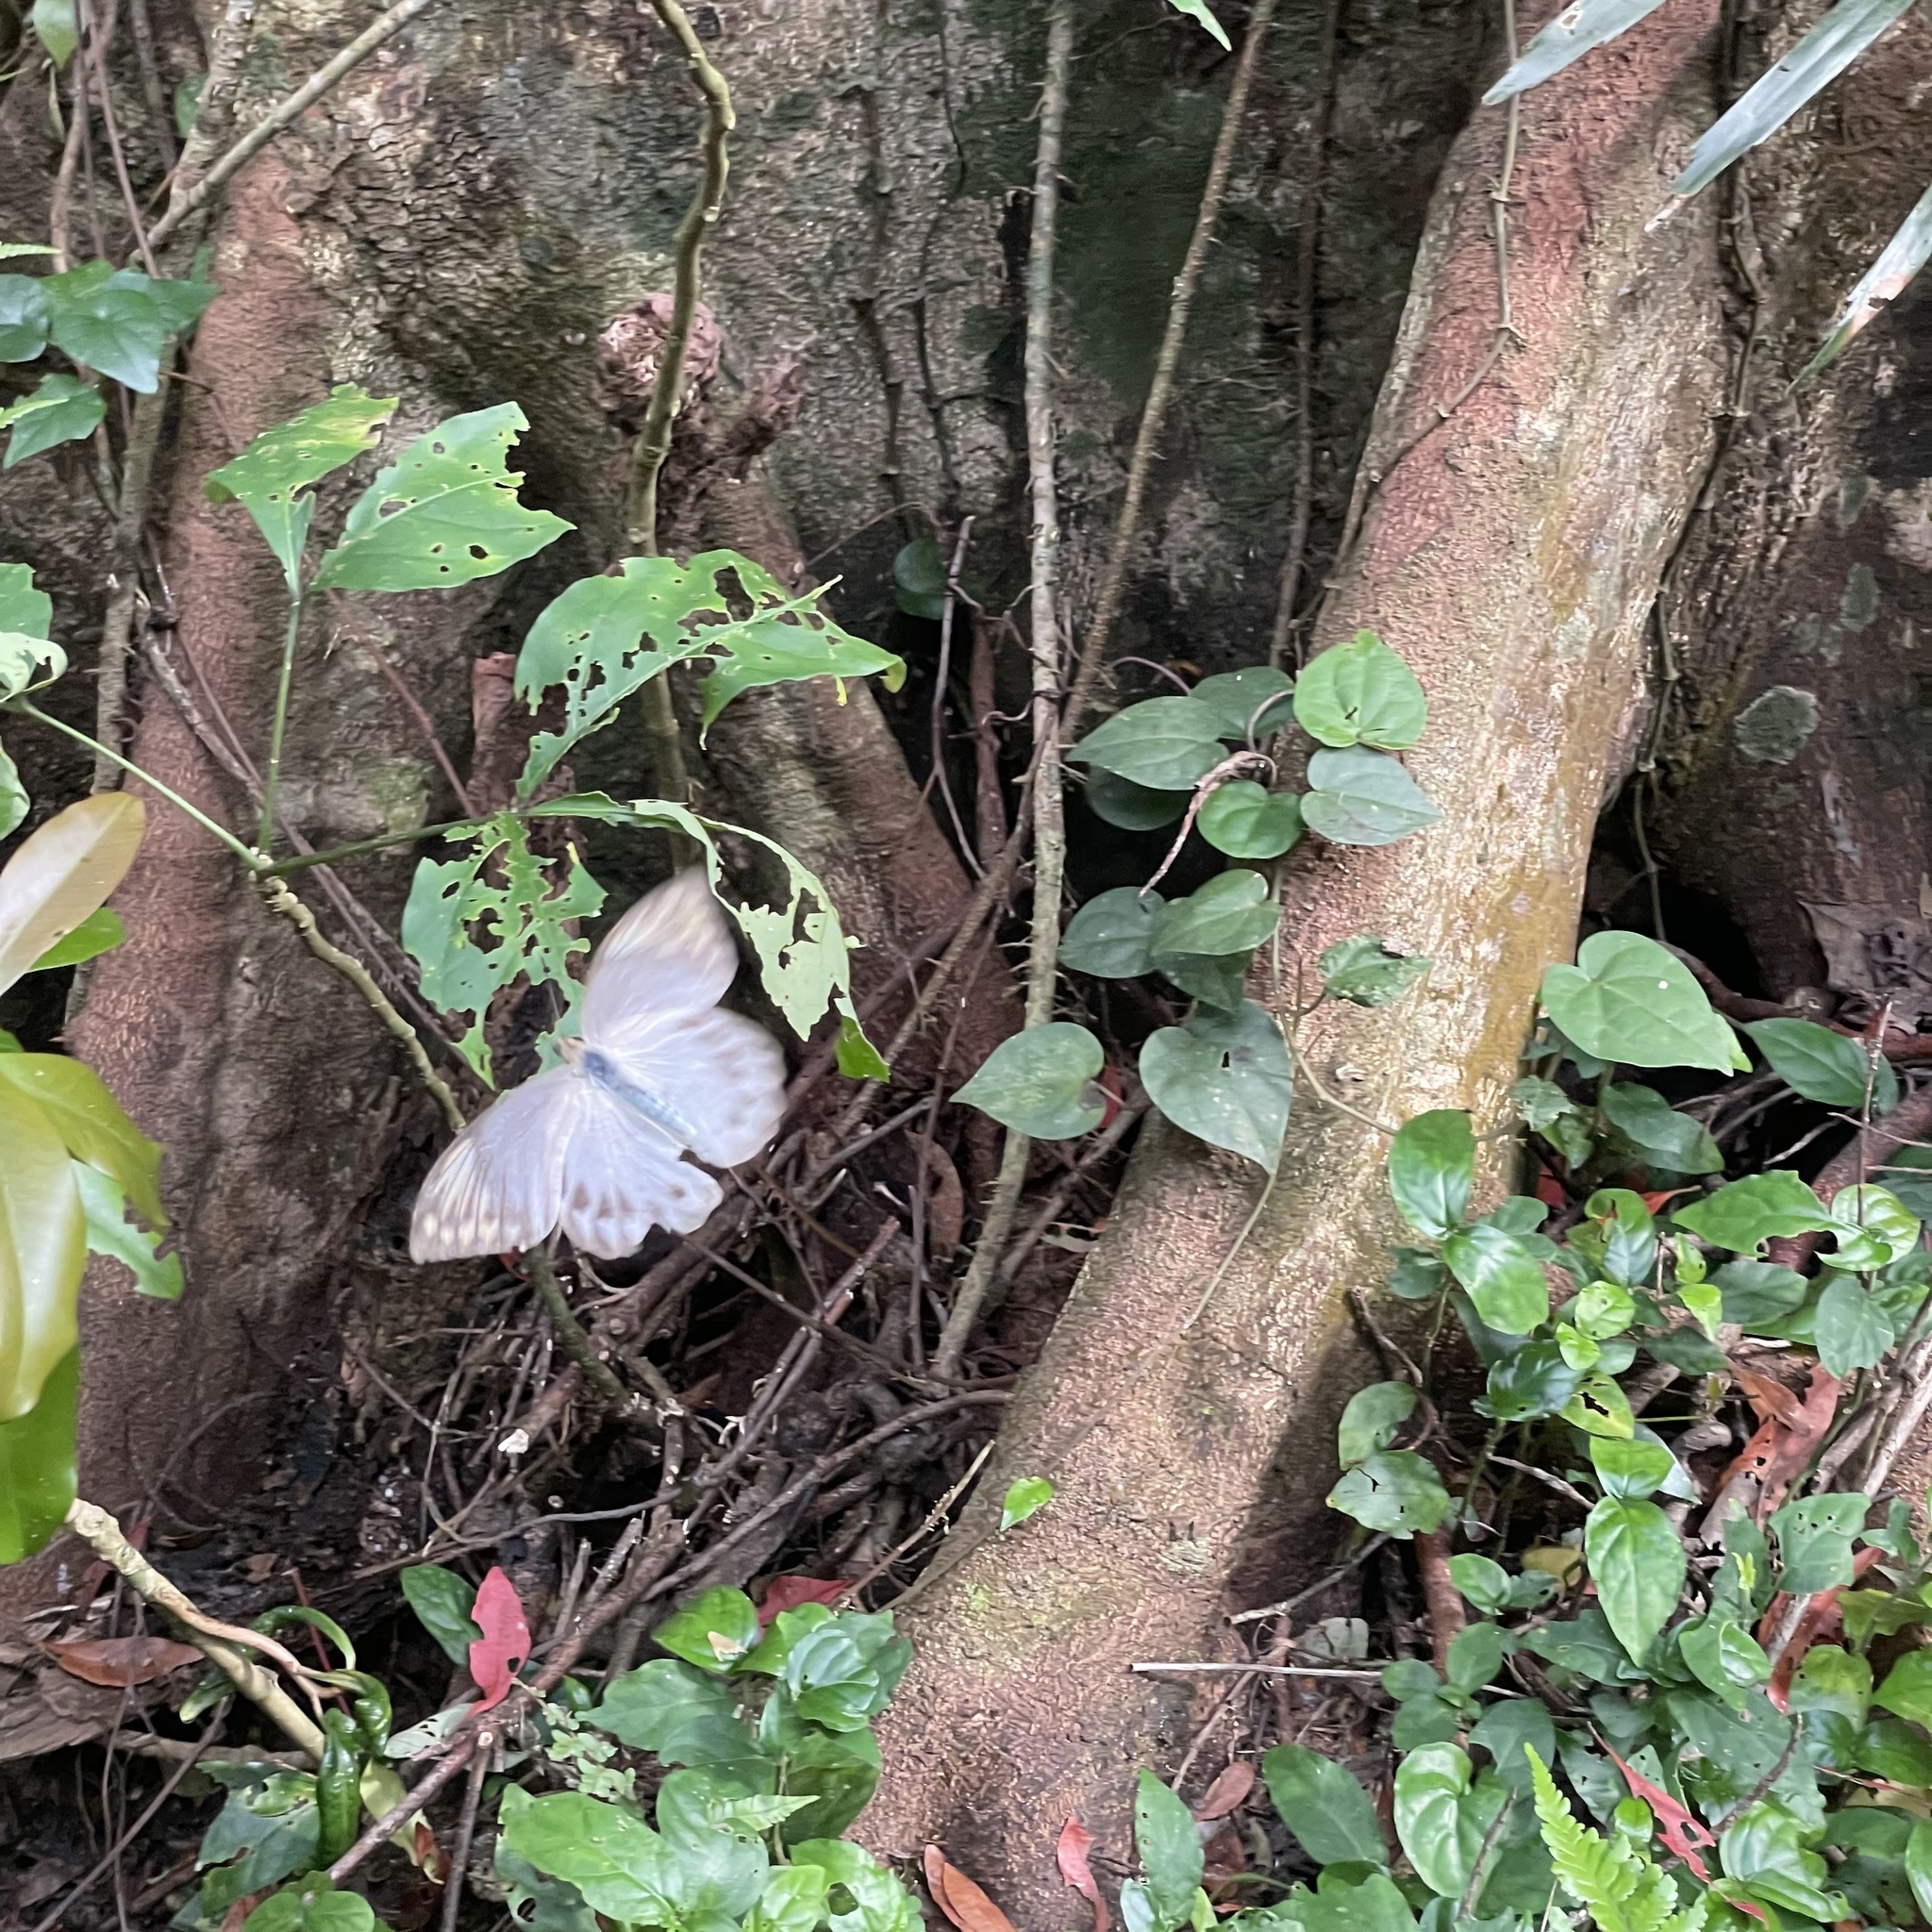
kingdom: Animalia
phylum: Arthropoda
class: Insecta
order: Lepidoptera
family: Pieridae
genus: Hebomoia
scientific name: Hebomoia glaucippe
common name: Great orange tip
